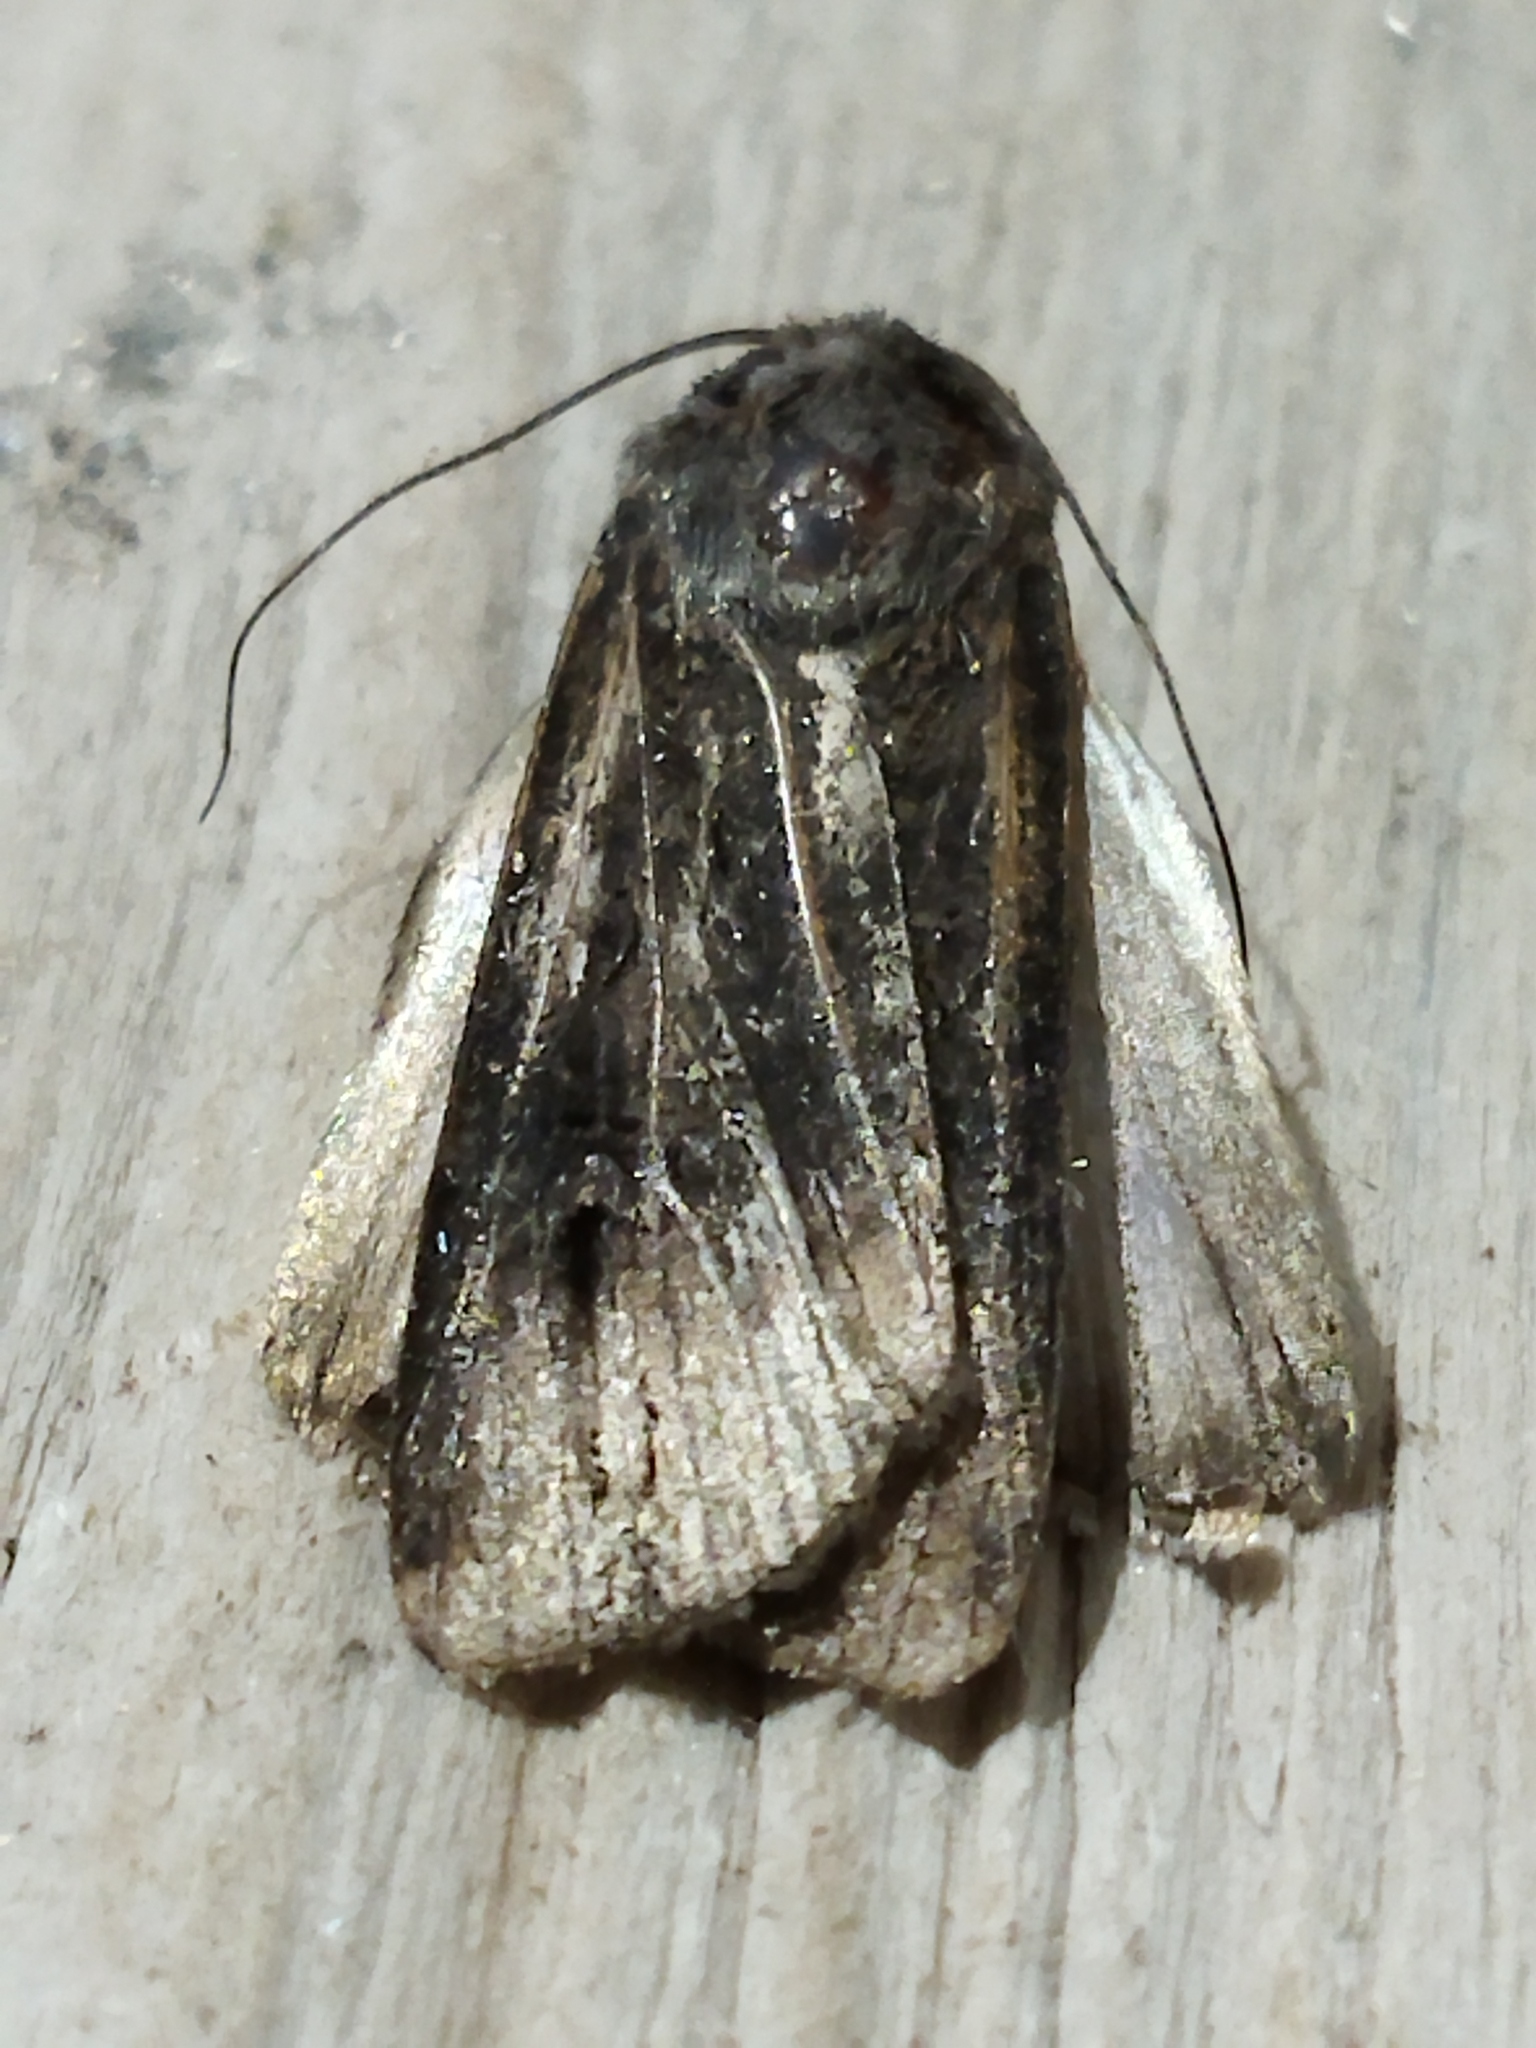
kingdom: Animalia
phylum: Arthropoda
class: Insecta
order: Lepidoptera
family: Noctuidae
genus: Agrotis
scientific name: Agrotis ipsilon
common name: Dark sword-grass
